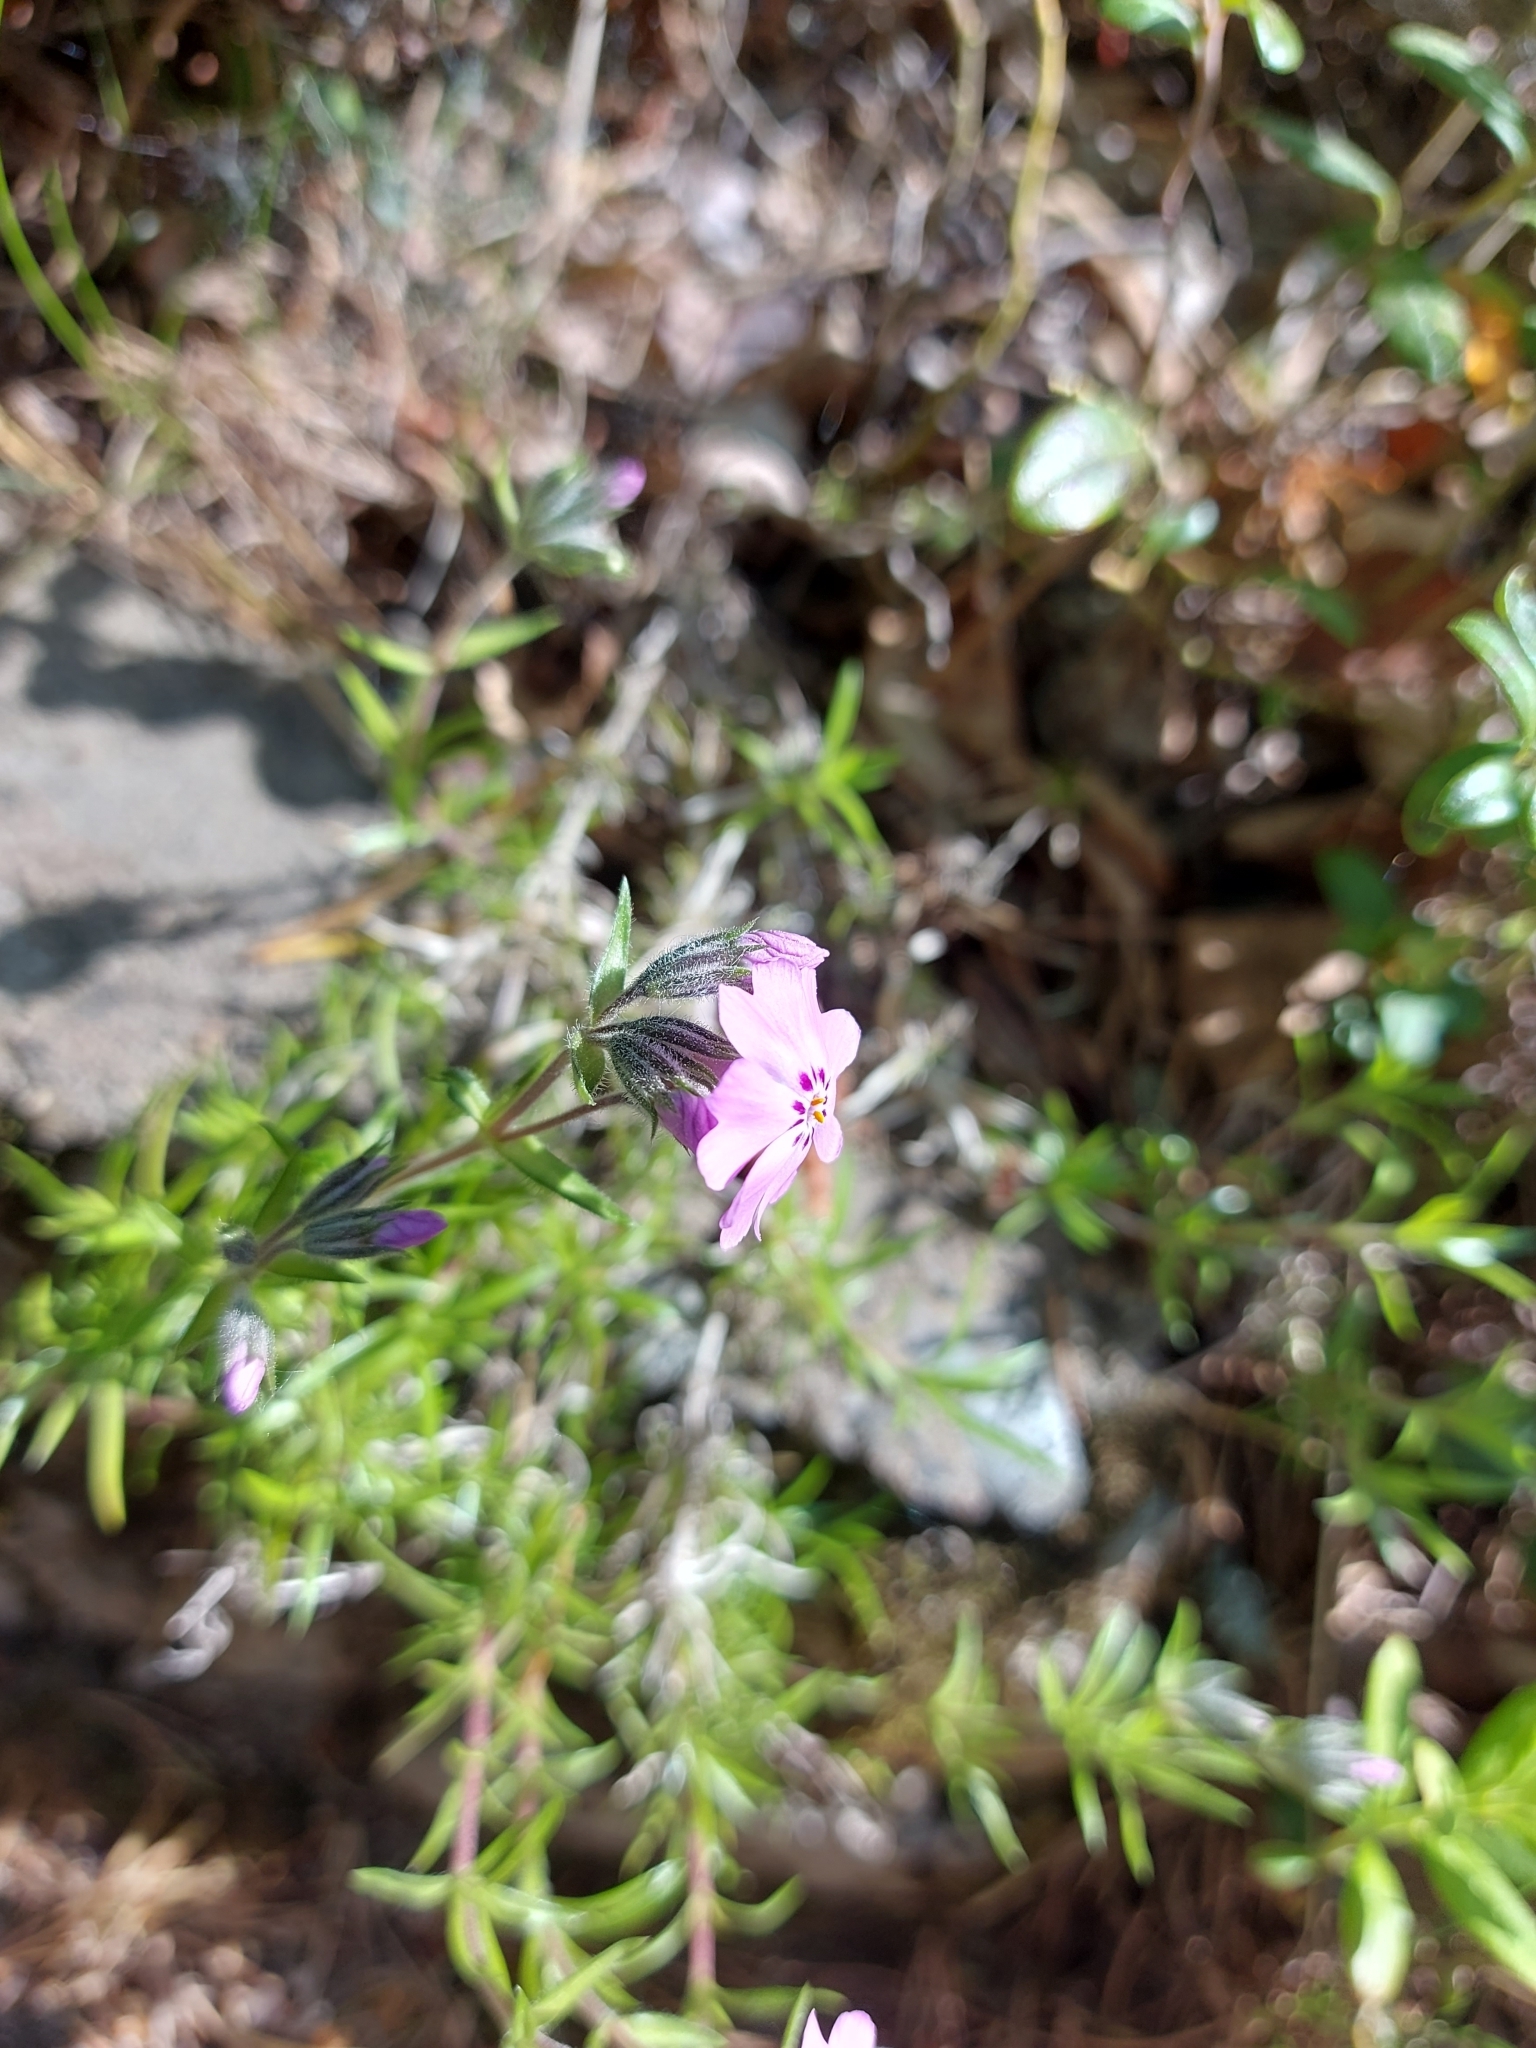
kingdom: Plantae
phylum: Tracheophyta
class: Magnoliopsida
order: Ericales
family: Polemoniaceae
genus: Phlox
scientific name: Phlox subulata
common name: Moss phlox
